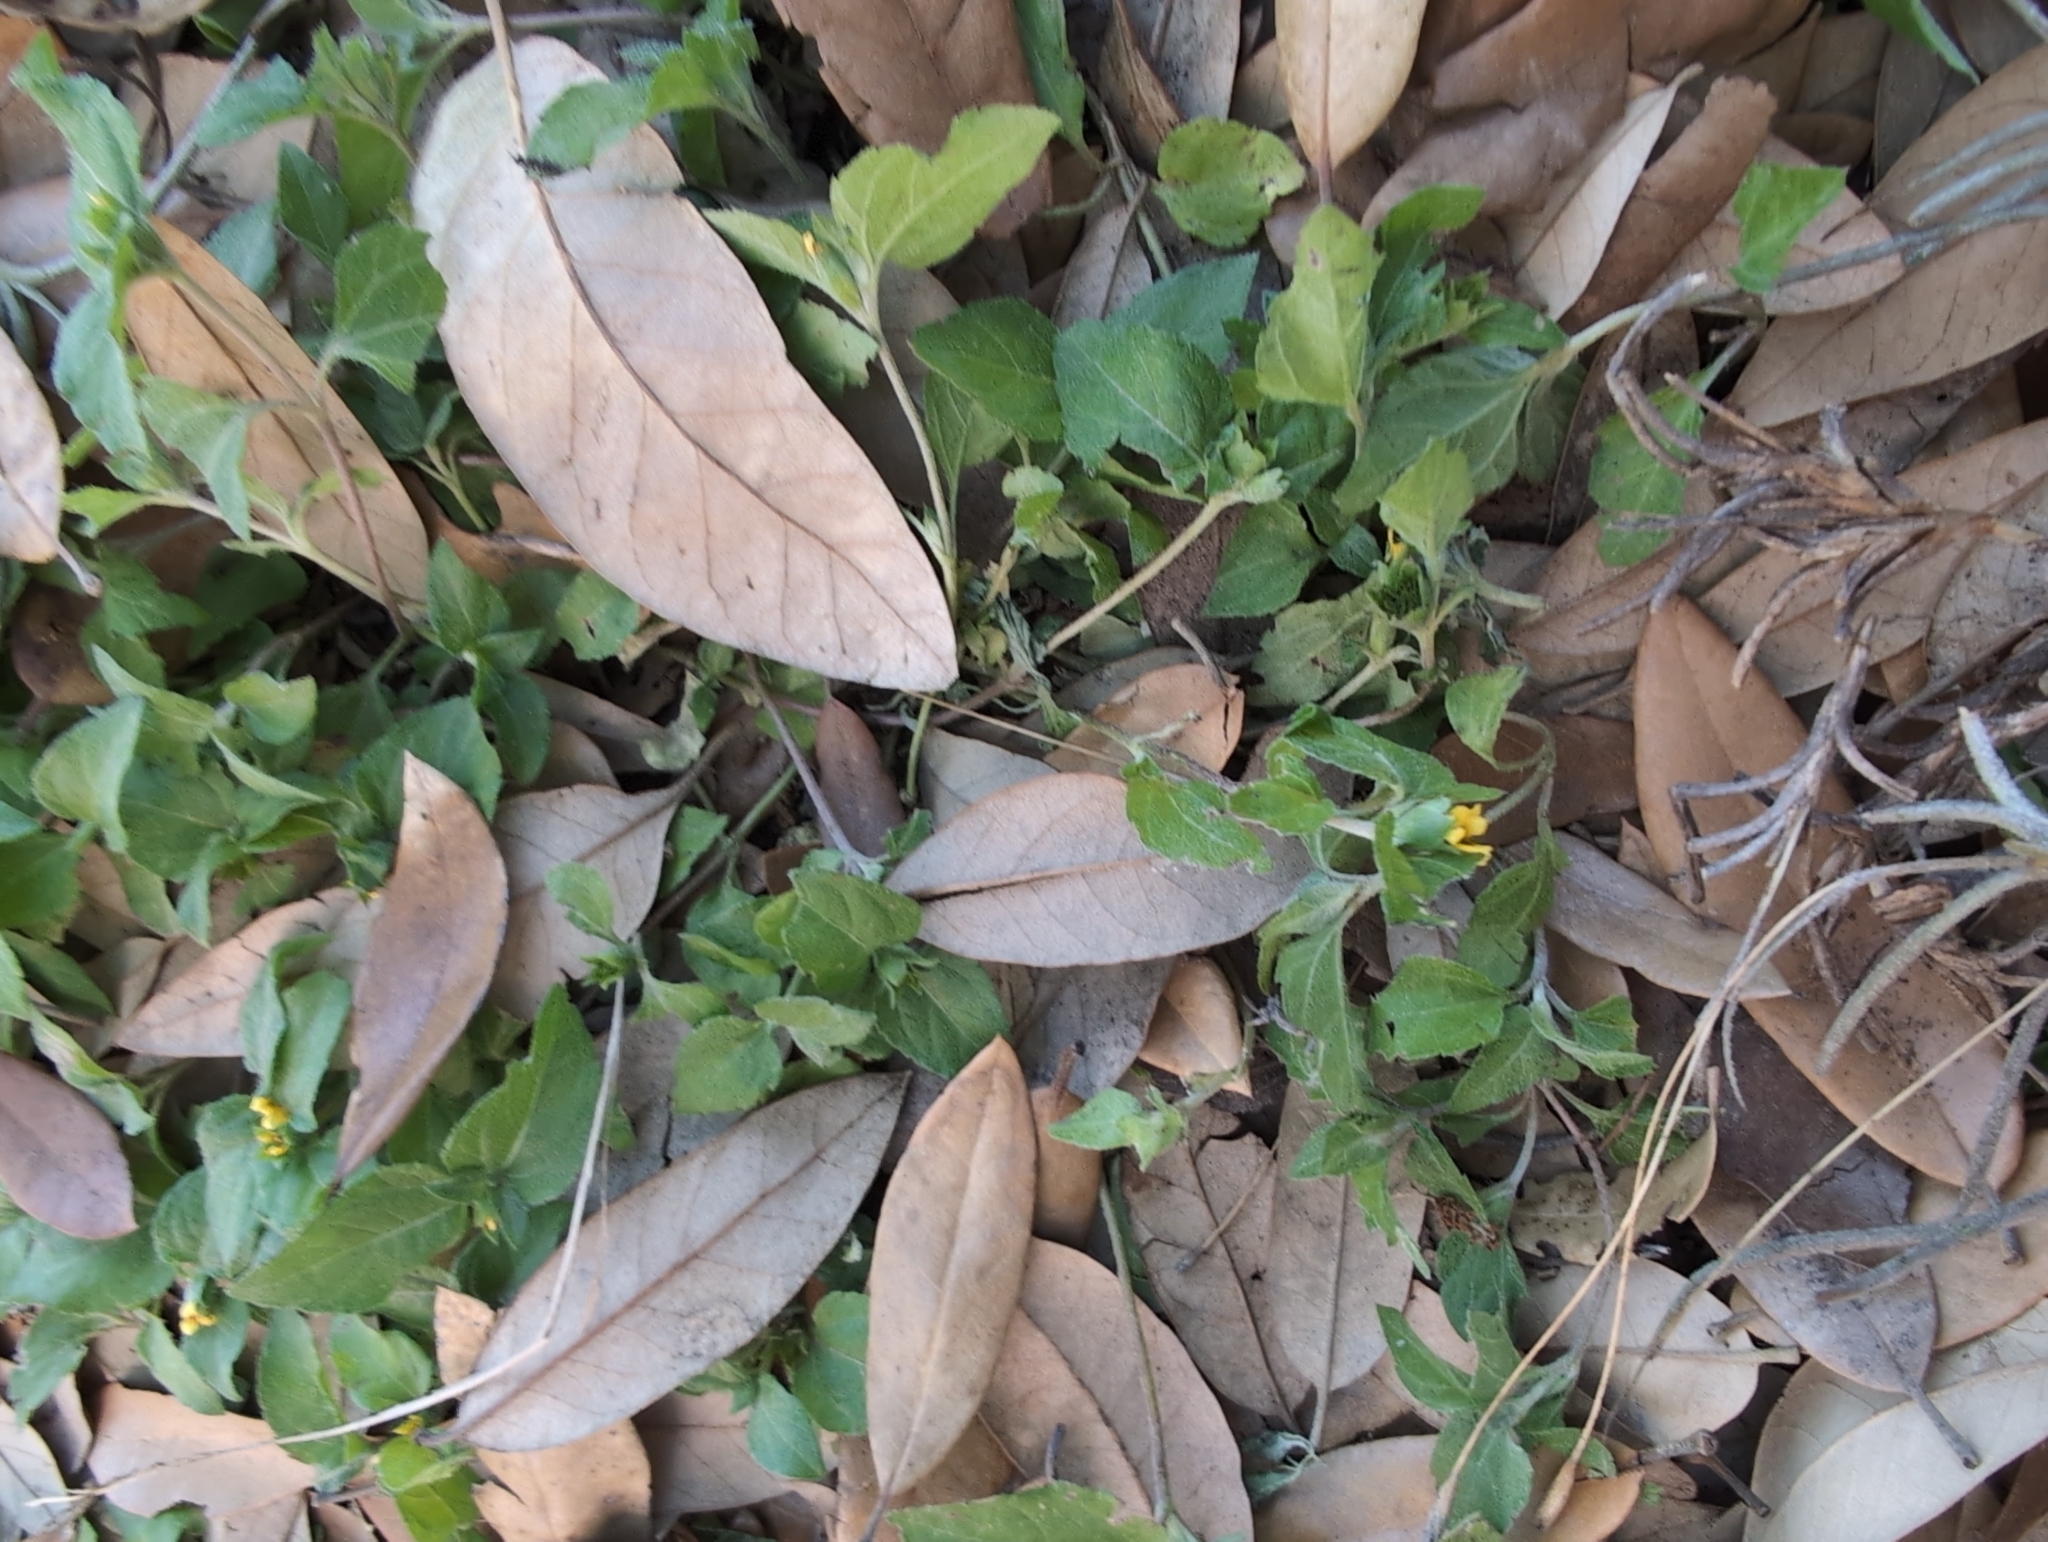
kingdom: Plantae
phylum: Tracheophyta
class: Magnoliopsida
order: Asterales
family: Asteraceae
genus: Calyptocarpus
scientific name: Calyptocarpus vialis
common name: Straggler daisy
